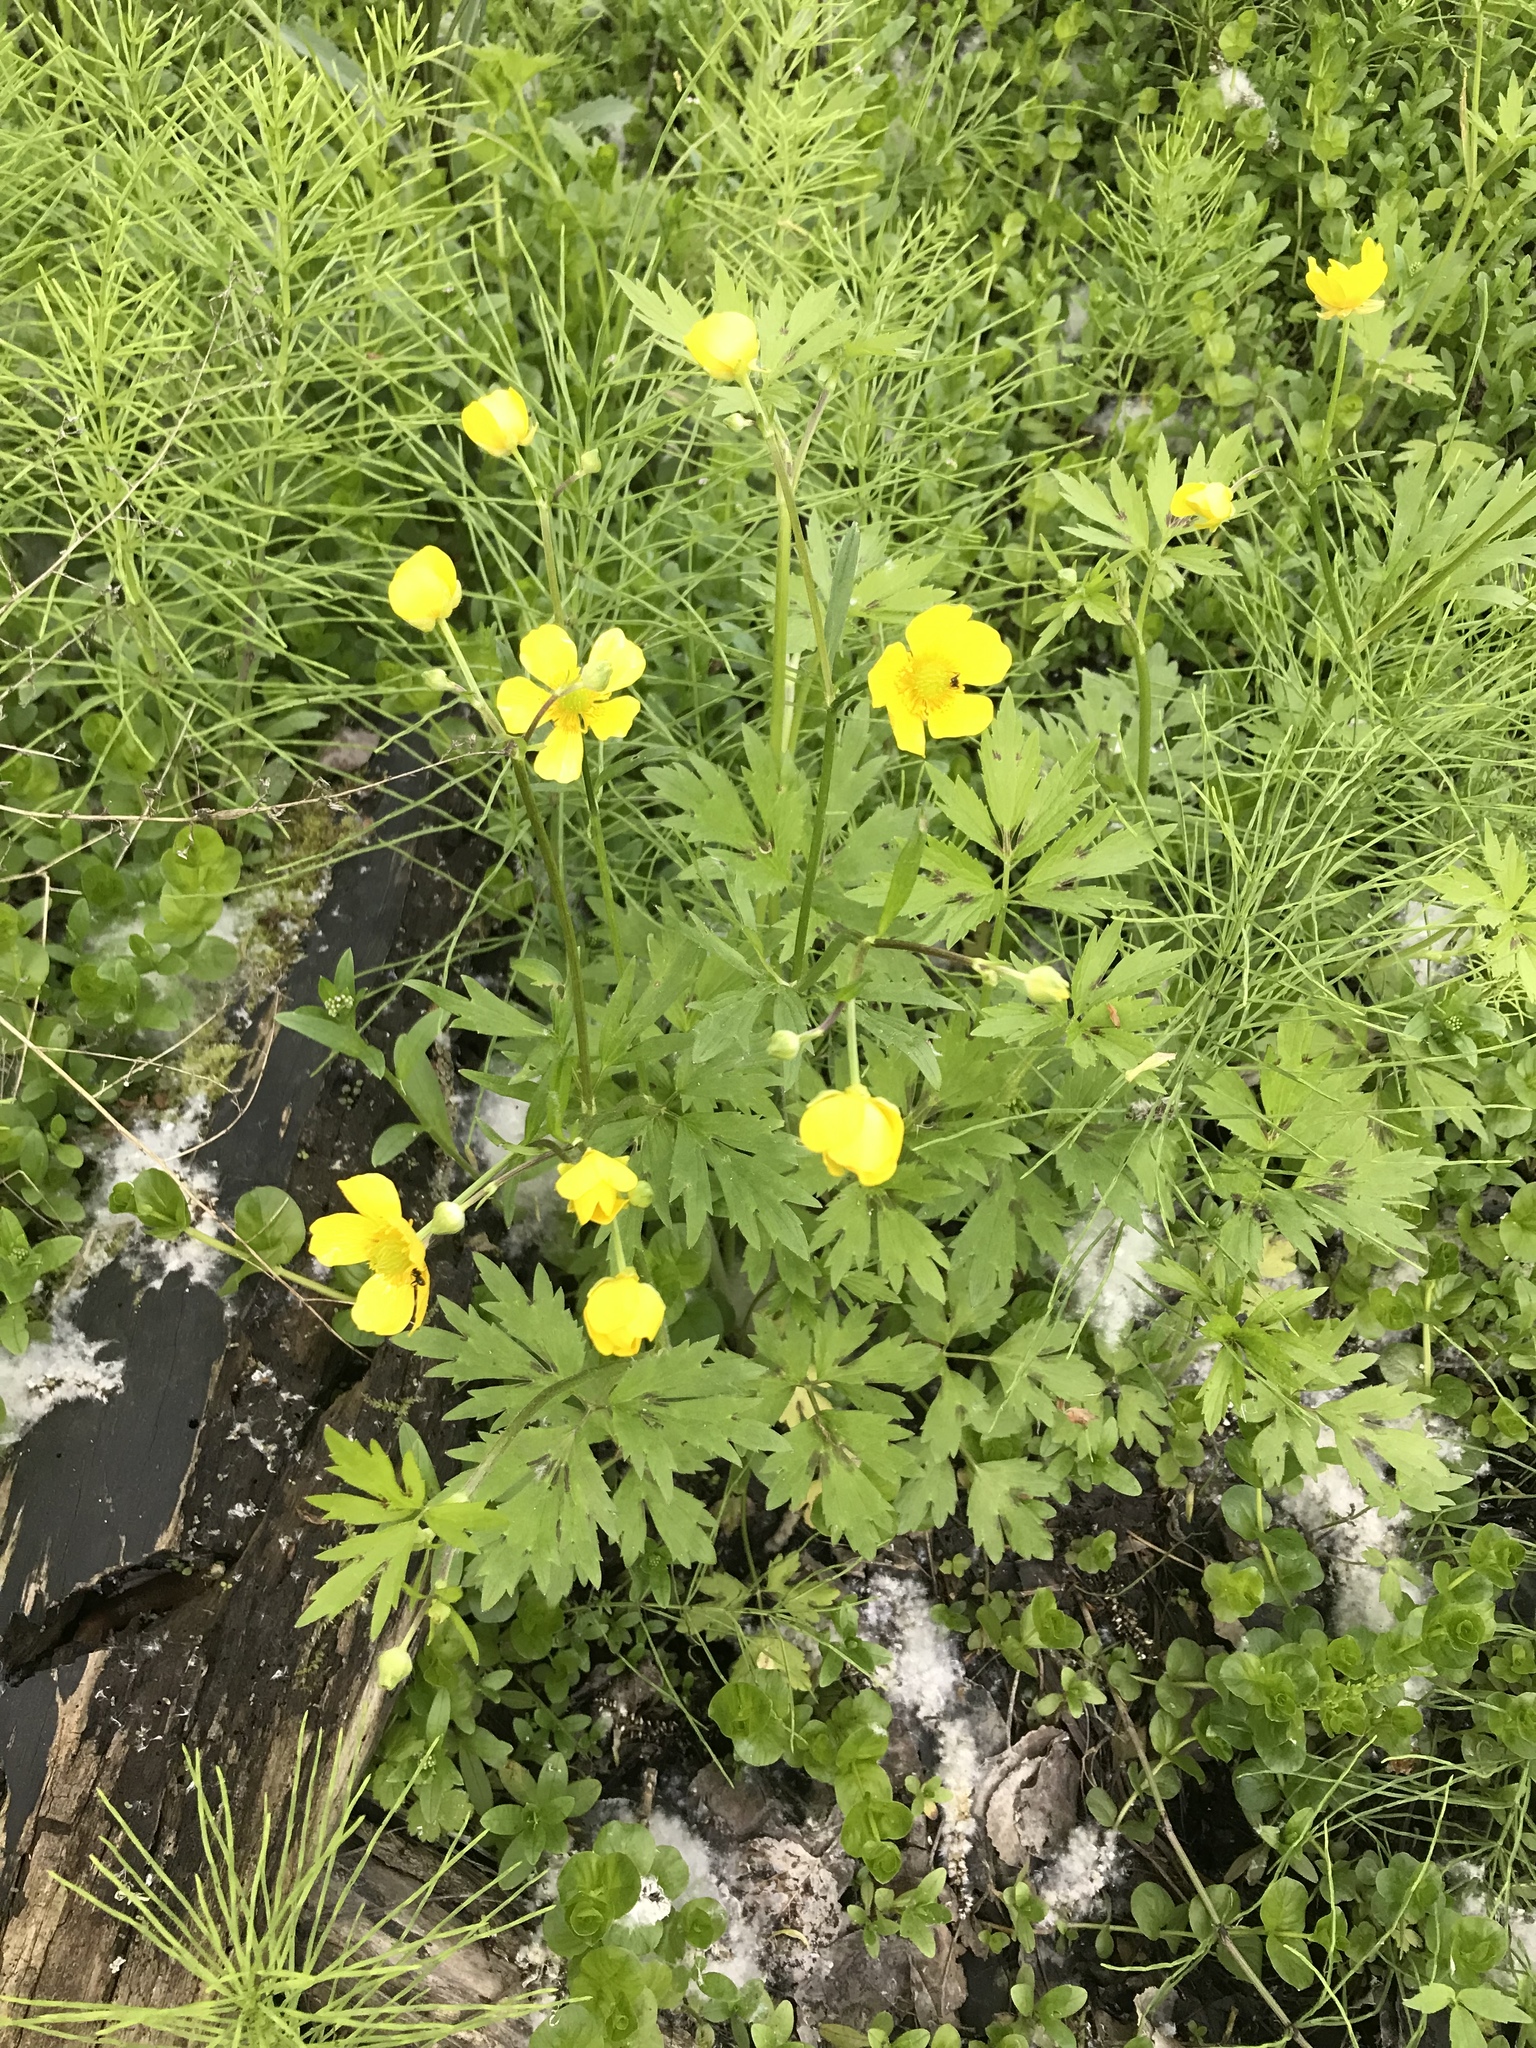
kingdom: Plantae
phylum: Tracheophyta
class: Magnoliopsida
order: Ranunculales
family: Ranunculaceae
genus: Ranunculus
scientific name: Ranunculus hispidus
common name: Bristly buttercup
